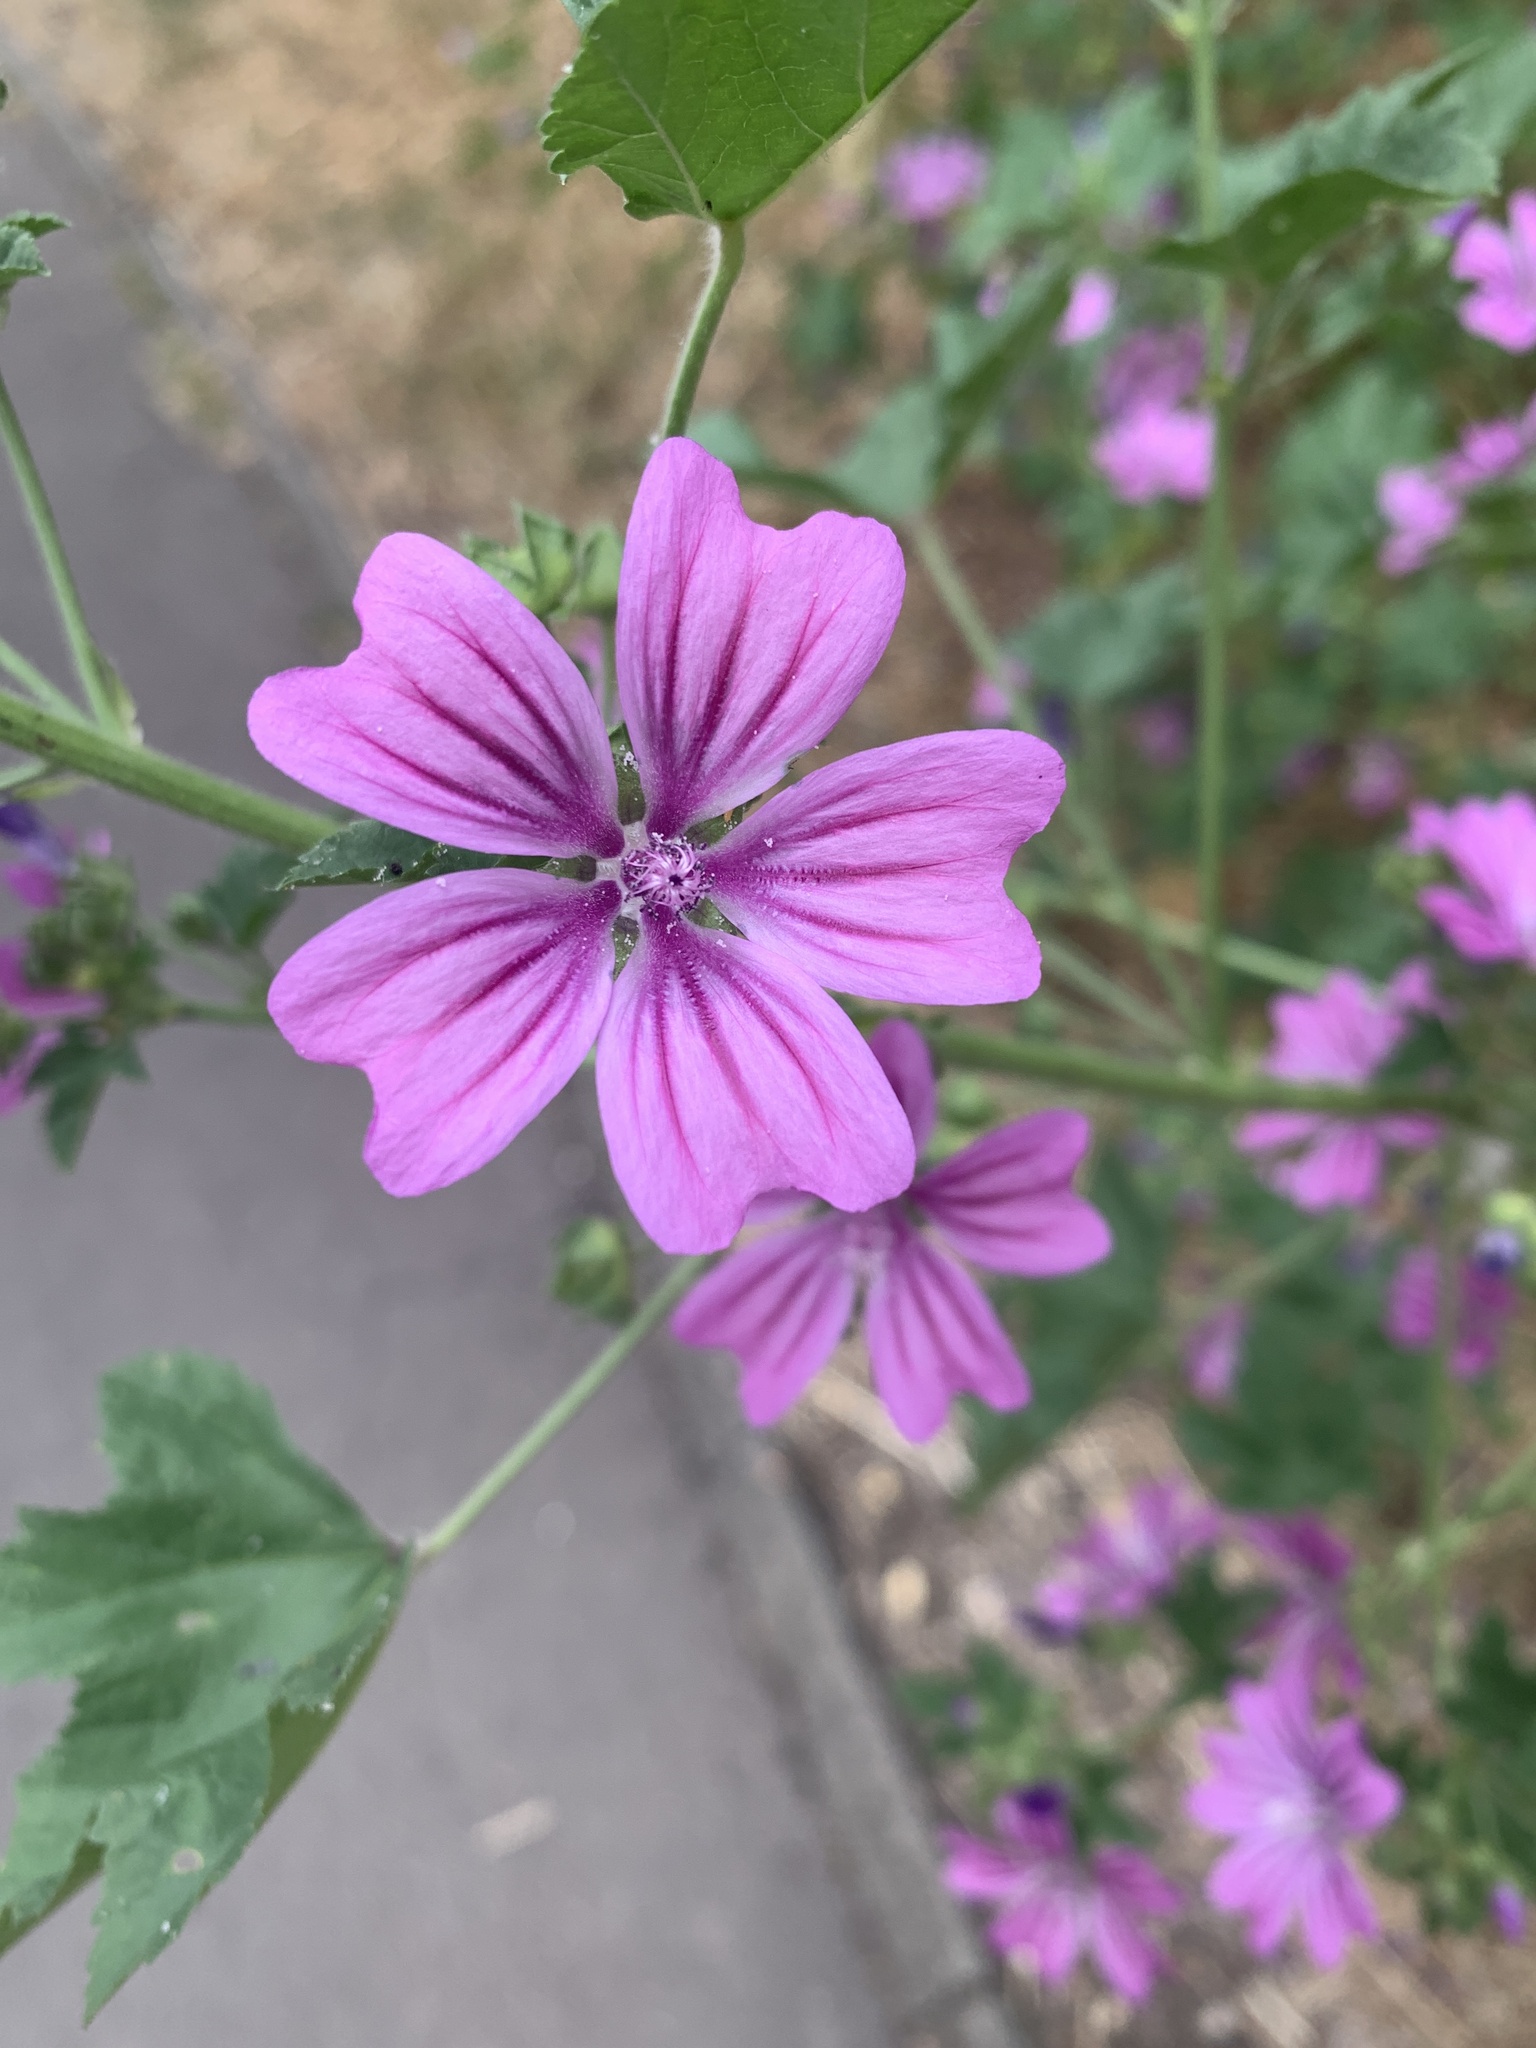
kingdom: Plantae
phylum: Tracheophyta
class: Magnoliopsida
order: Malvales
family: Malvaceae
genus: Malva
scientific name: Malva sylvestris
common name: Common mallow
